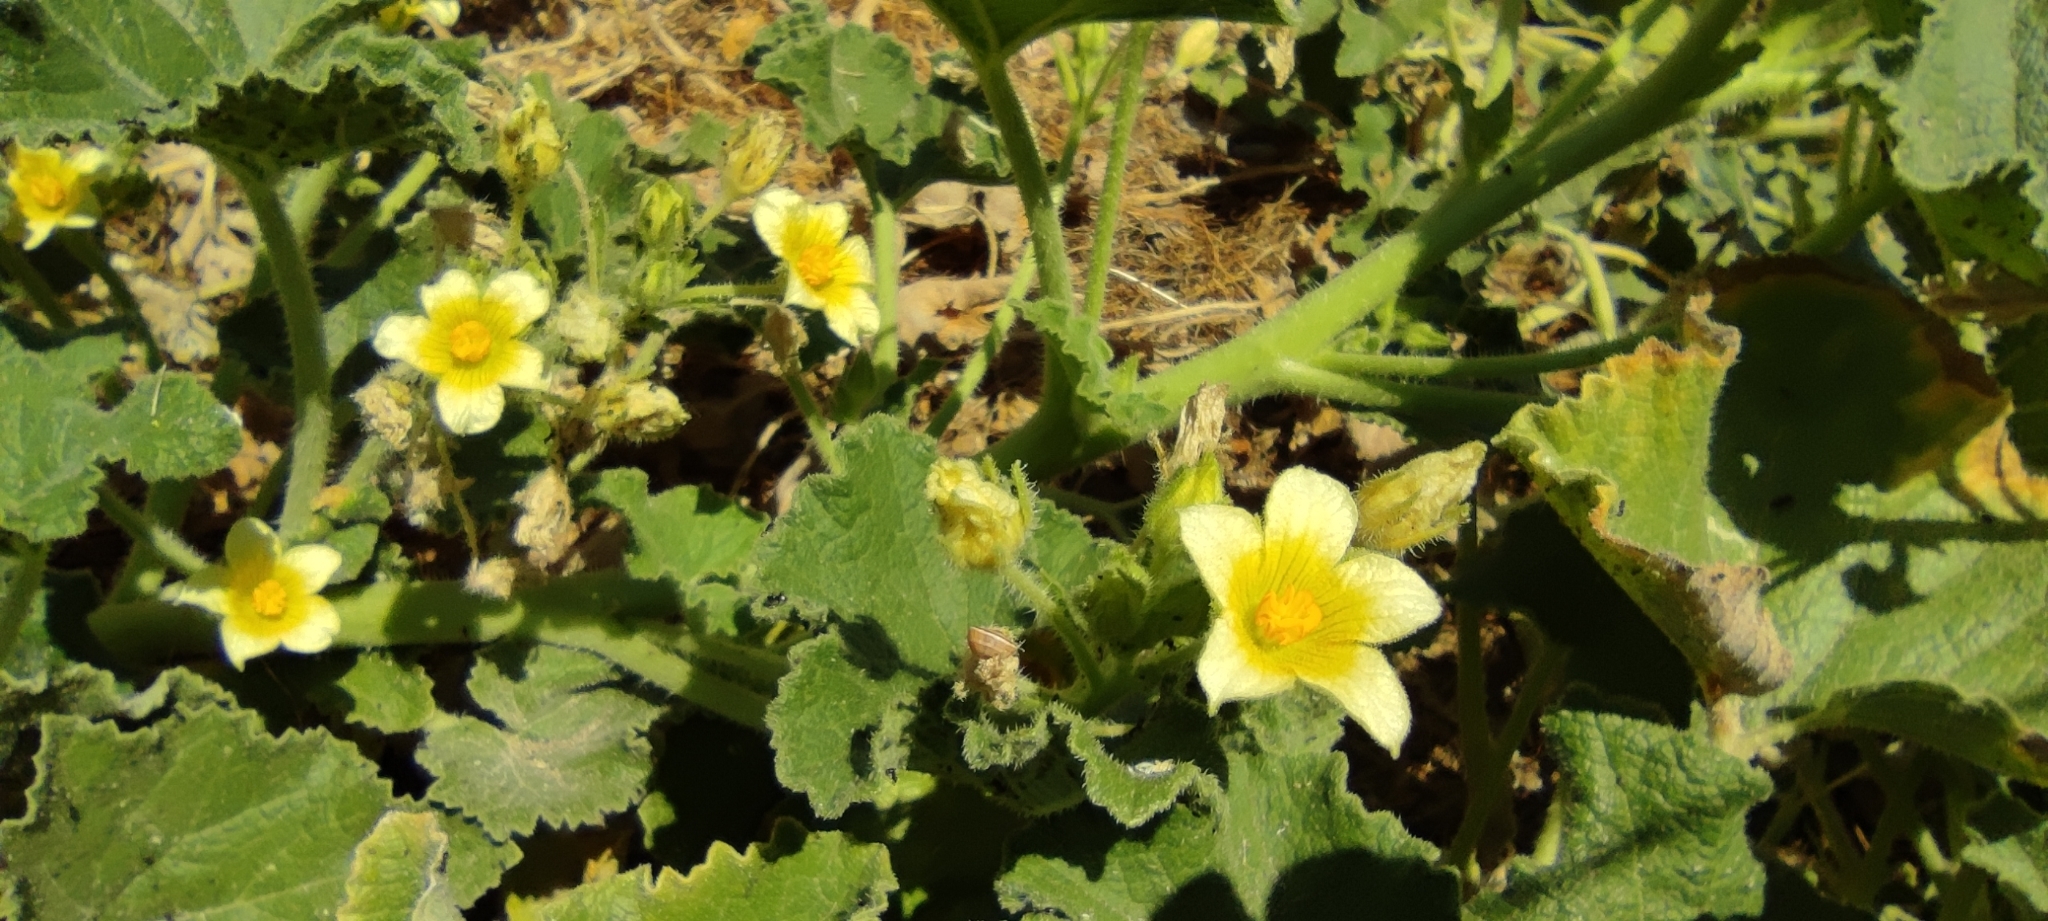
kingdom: Plantae
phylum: Tracheophyta
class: Magnoliopsida
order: Cucurbitales
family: Cucurbitaceae
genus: Ecballium
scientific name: Ecballium elaterium
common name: Squirting cucumber
